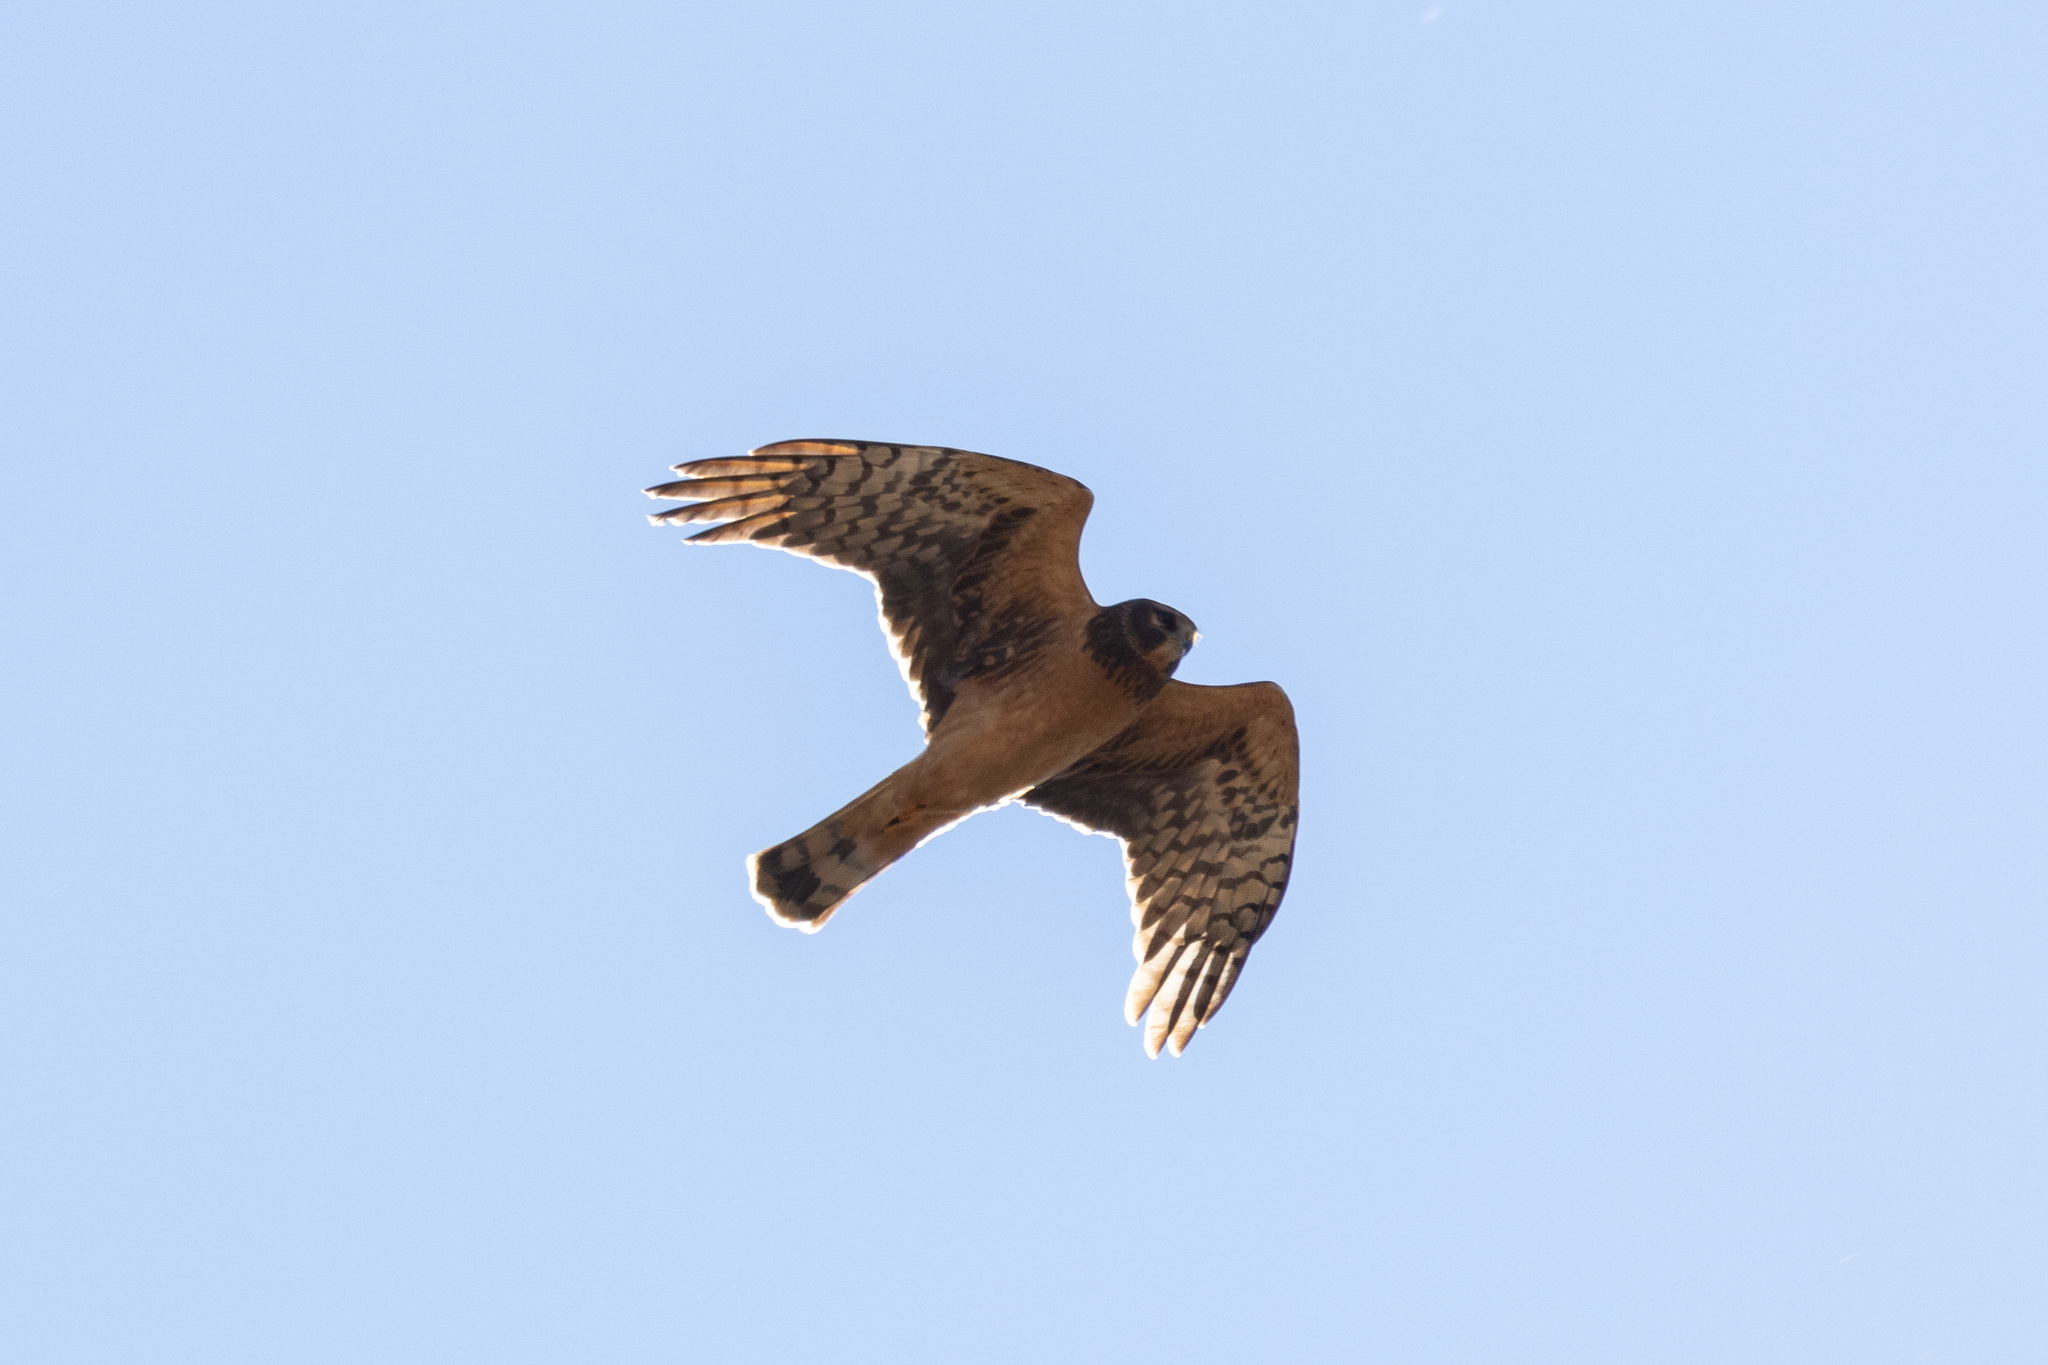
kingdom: Animalia
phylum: Chordata
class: Aves
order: Accipitriformes
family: Accipitridae
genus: Circus
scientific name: Circus cyaneus
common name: Hen harrier
